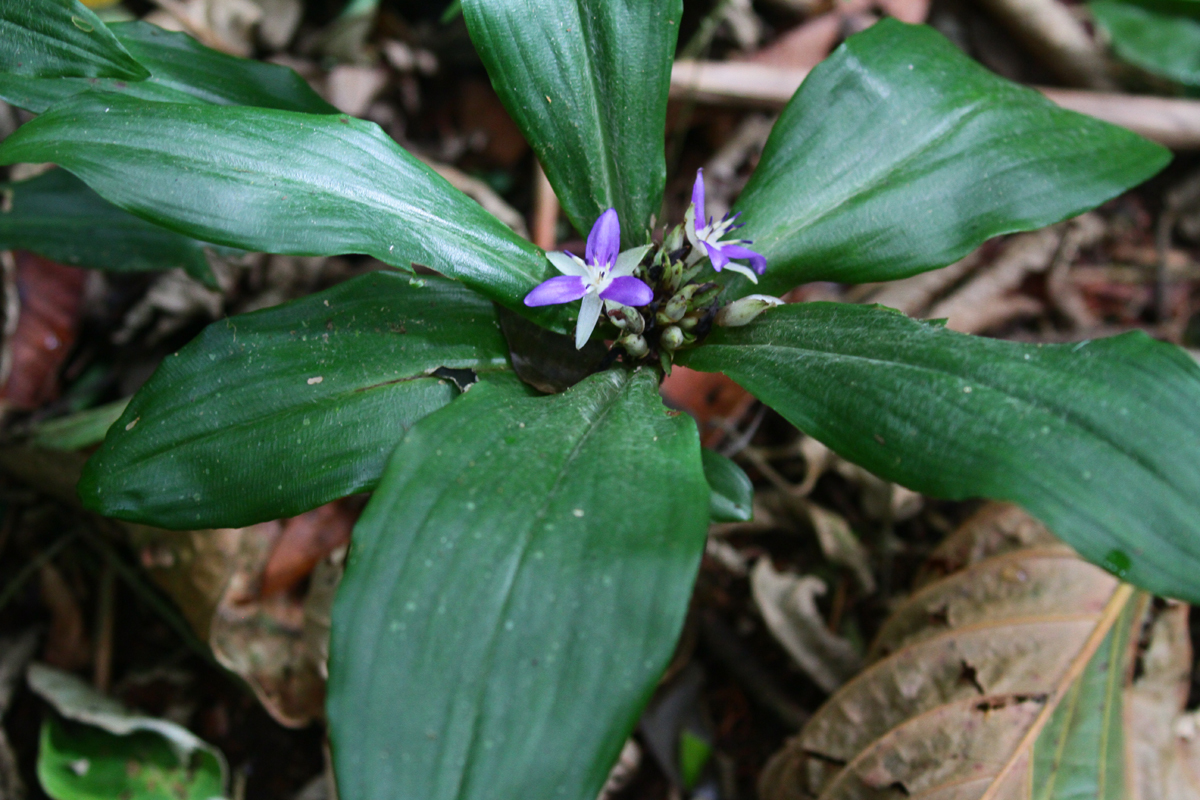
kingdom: Plantae
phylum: Tracheophyta
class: Liliopsida
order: Commelinales
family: Commelinaceae
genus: Dichorisandra
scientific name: Dichorisandra acaulis
